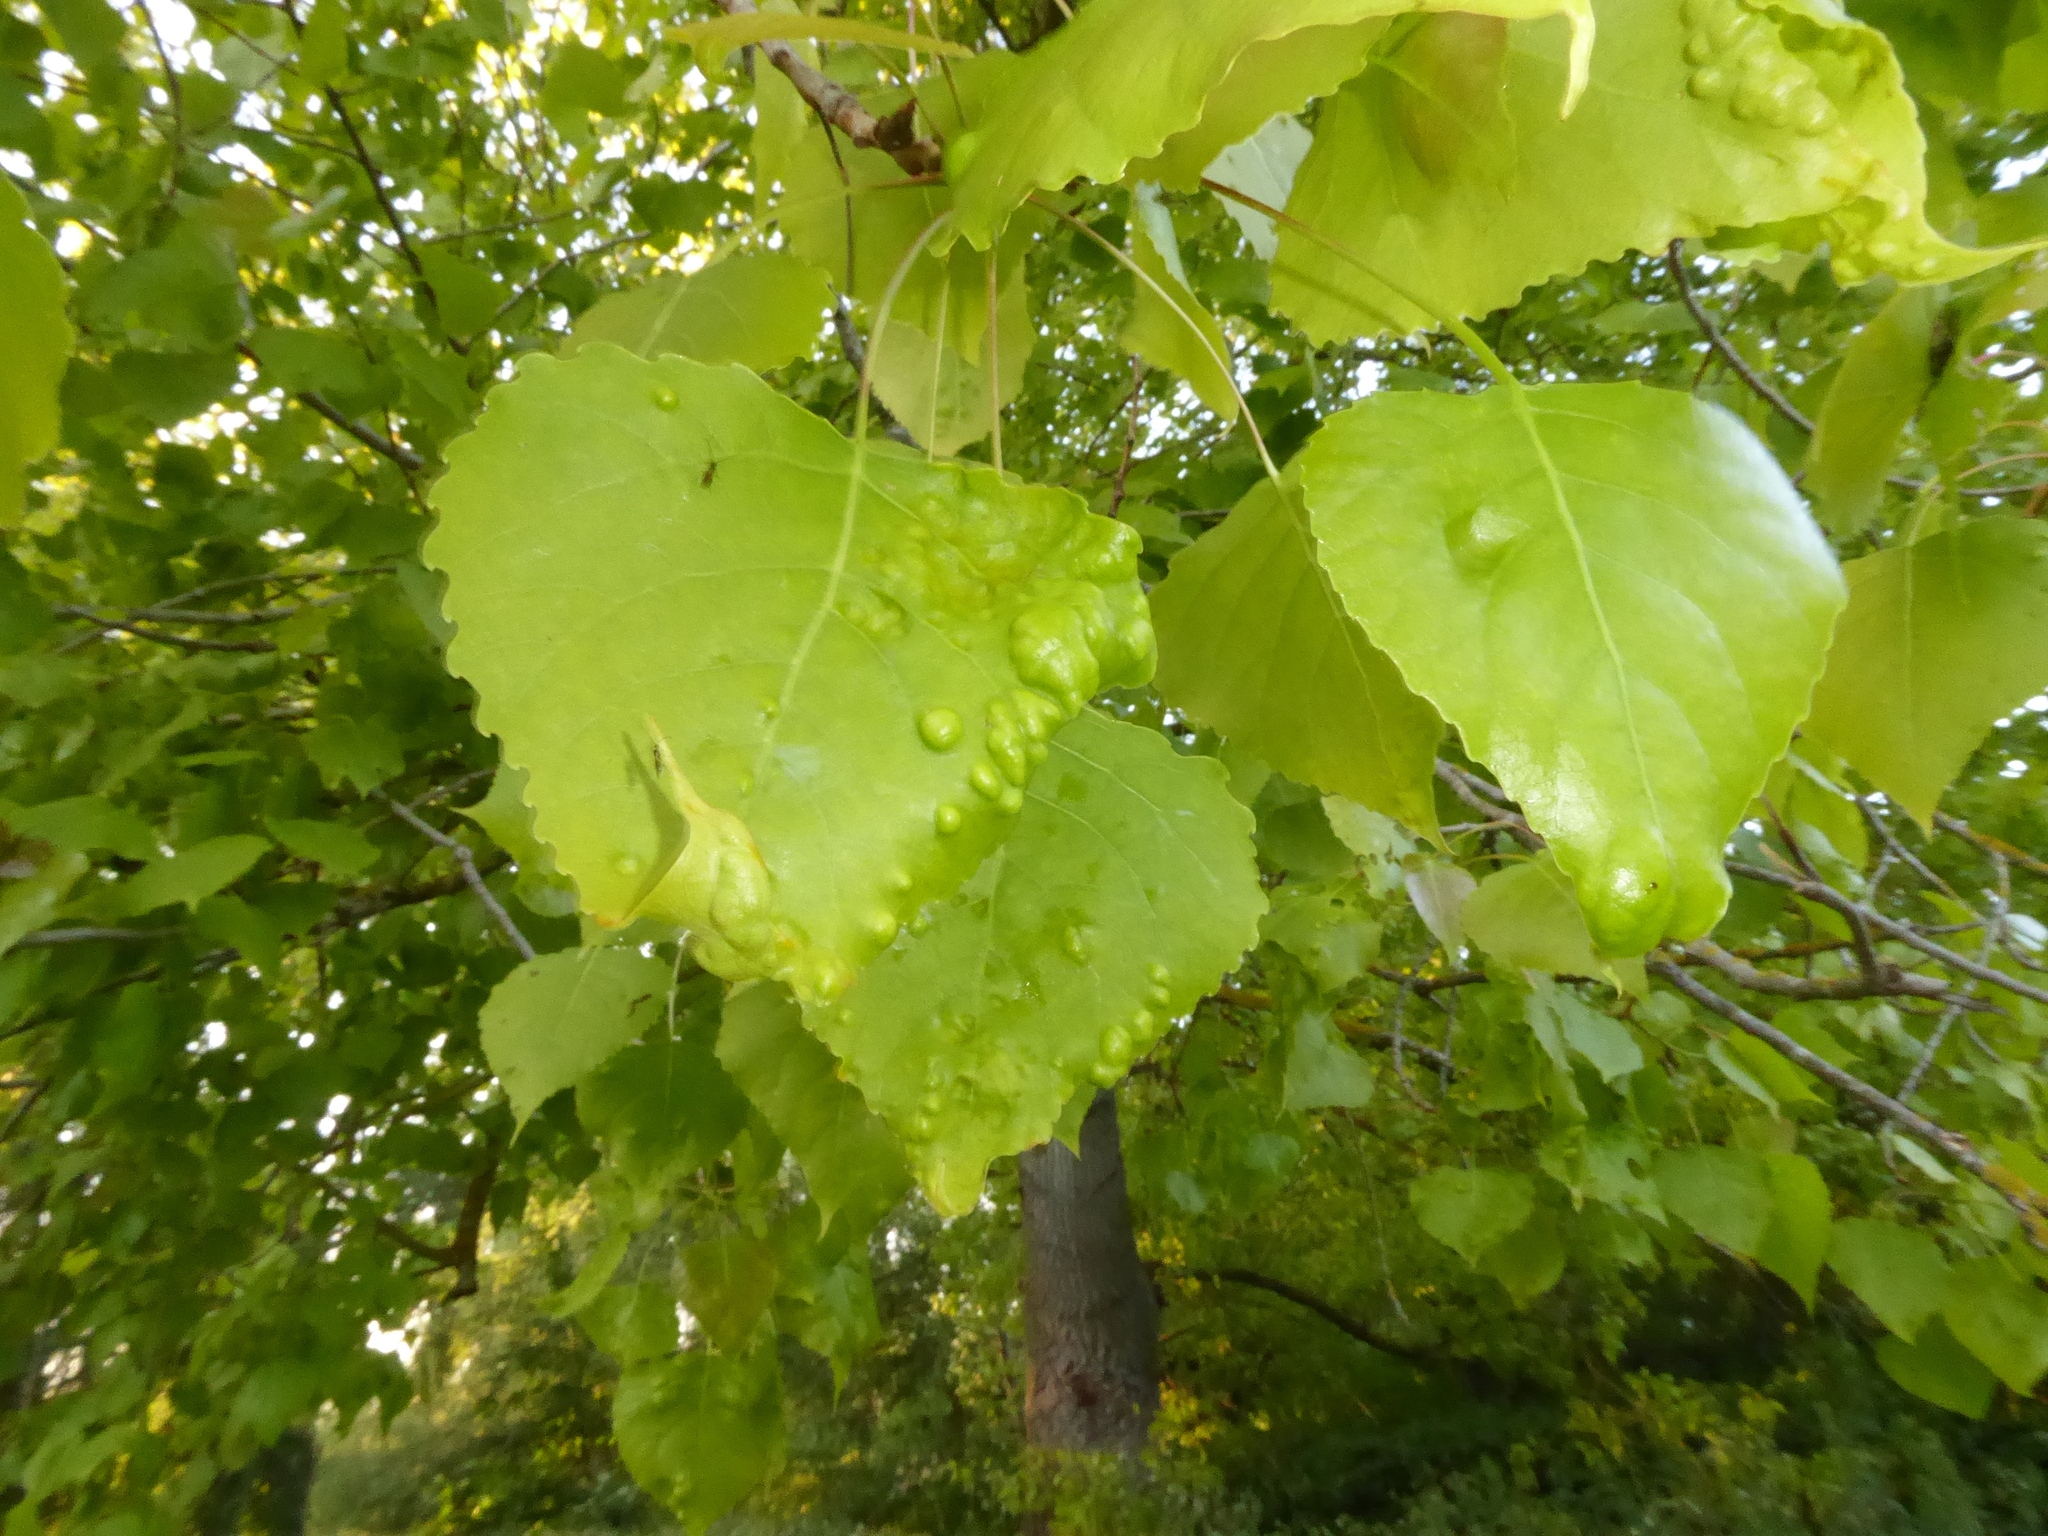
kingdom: Fungi
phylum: Ascomycota
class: Taphrinomycetes
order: Taphrinales
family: Taphrinaceae
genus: Taphrina
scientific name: Taphrina populina
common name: Poplar leaf curl
